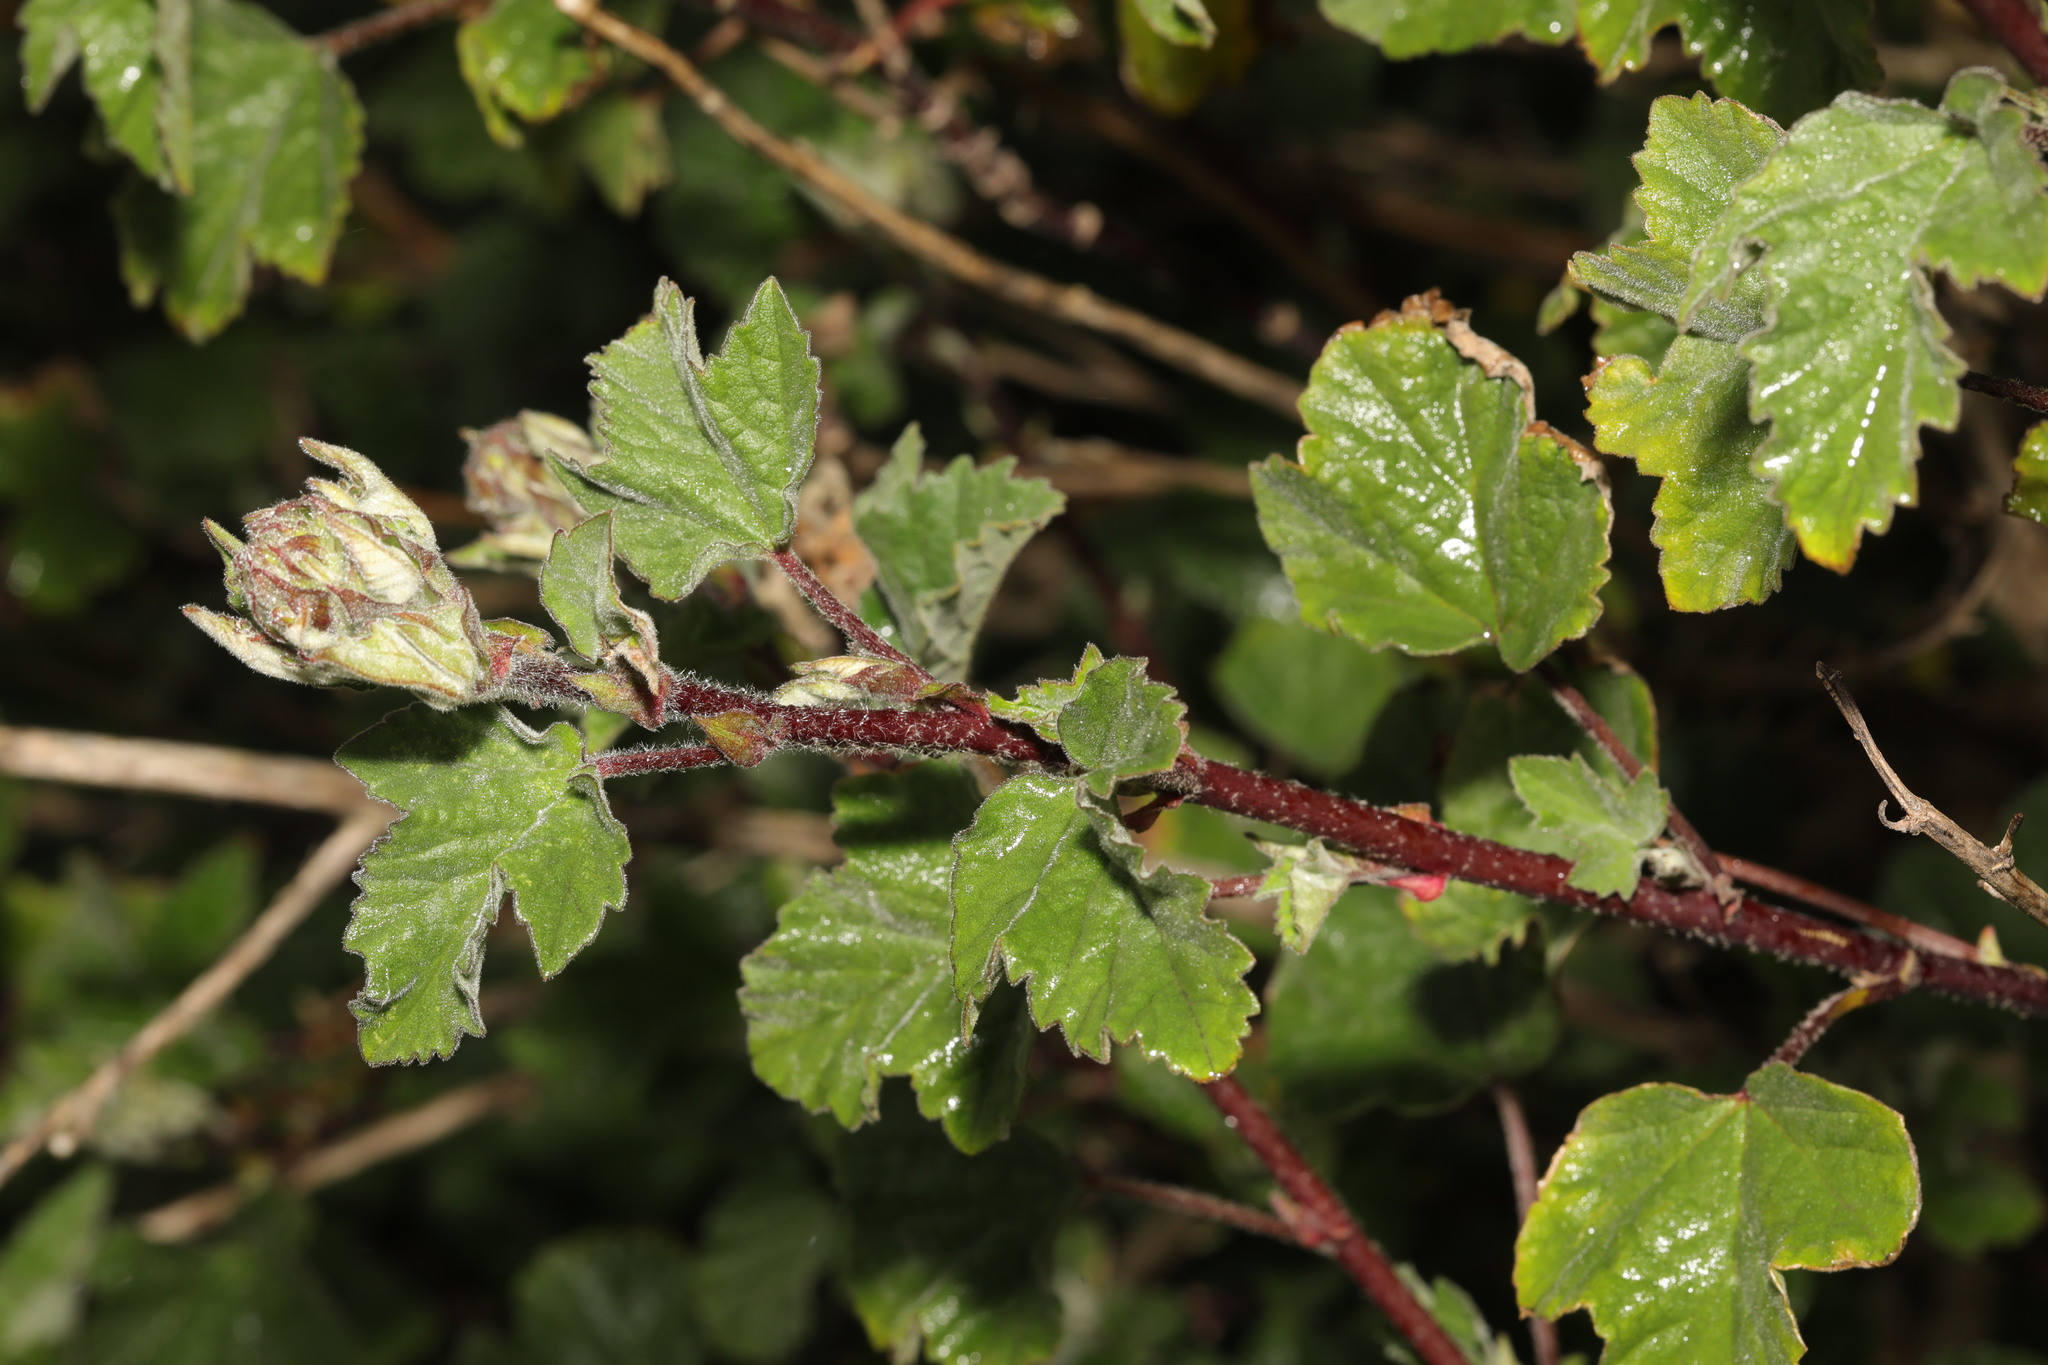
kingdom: Plantae
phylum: Tracheophyta
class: Magnoliopsida
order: Malvales
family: Malvaceae
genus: Malva
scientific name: Malva arborea
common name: Tree mallow
